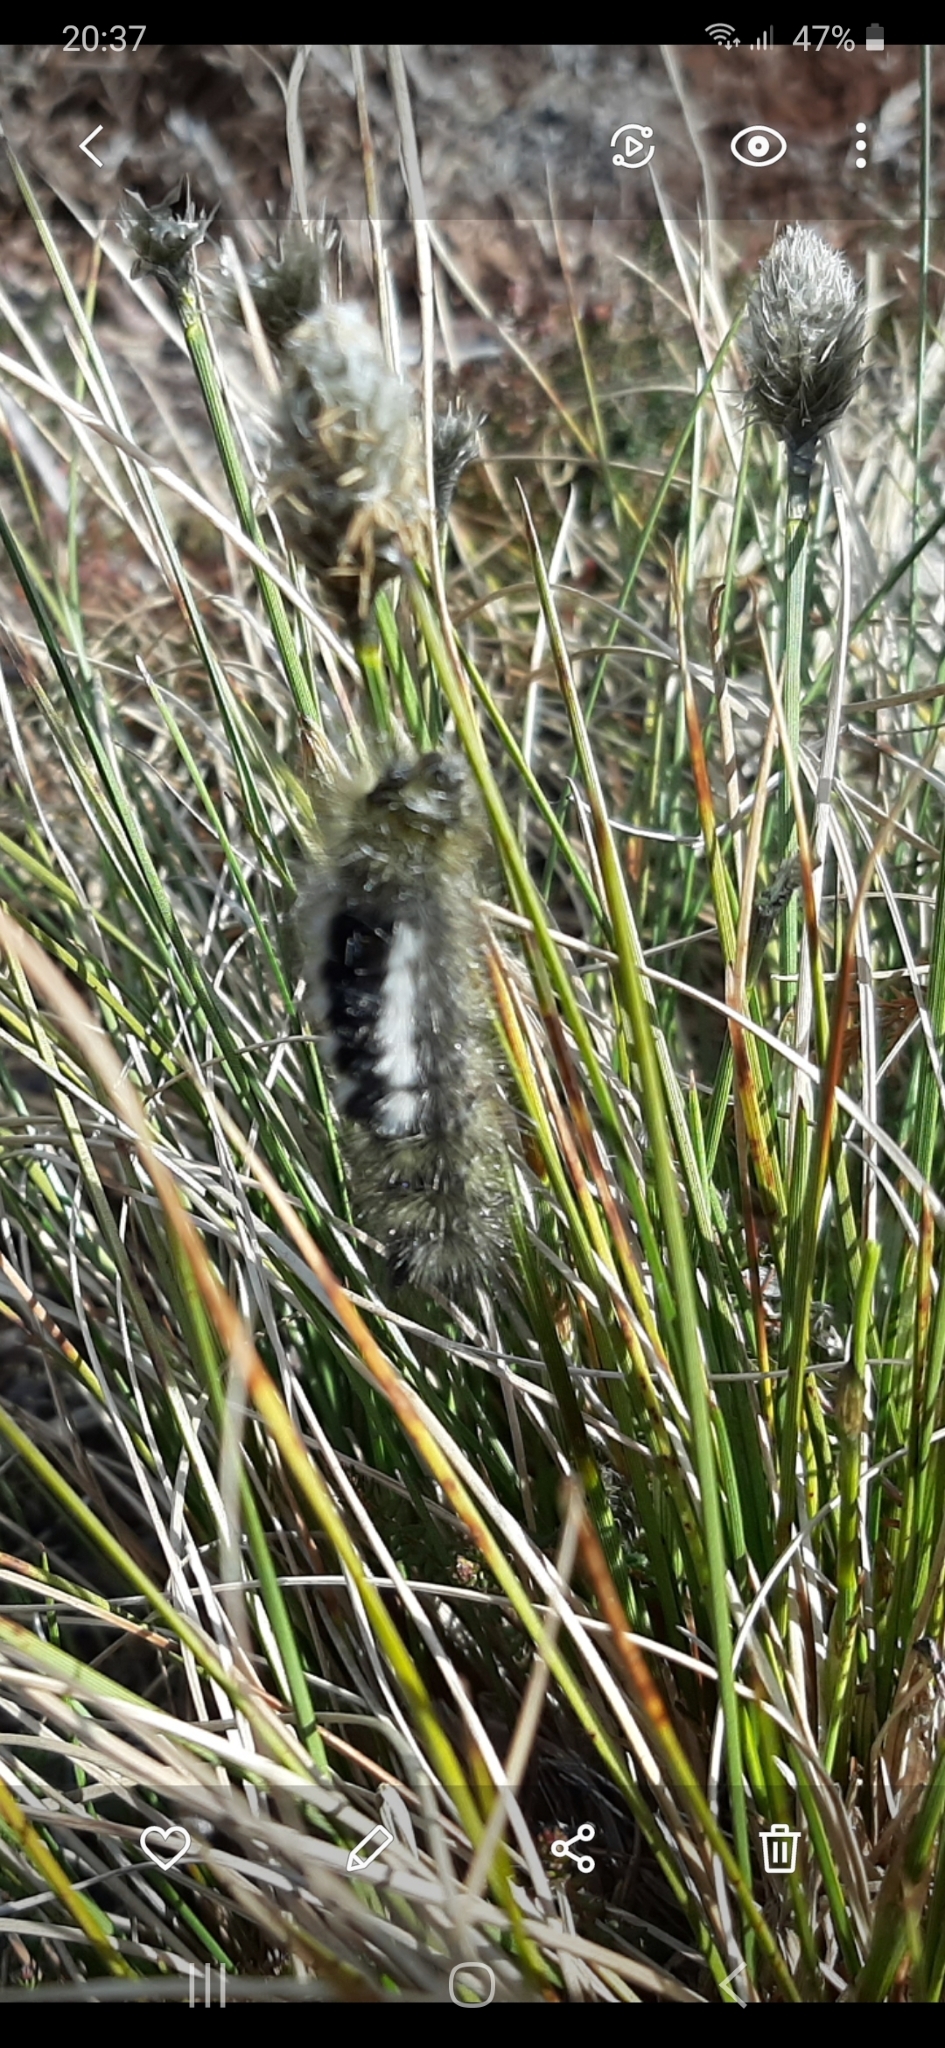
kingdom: Animalia
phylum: Arthropoda
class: Insecta
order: Lepidoptera
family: Erebidae
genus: Calliteara
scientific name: Calliteara Dicallomera fascelina
